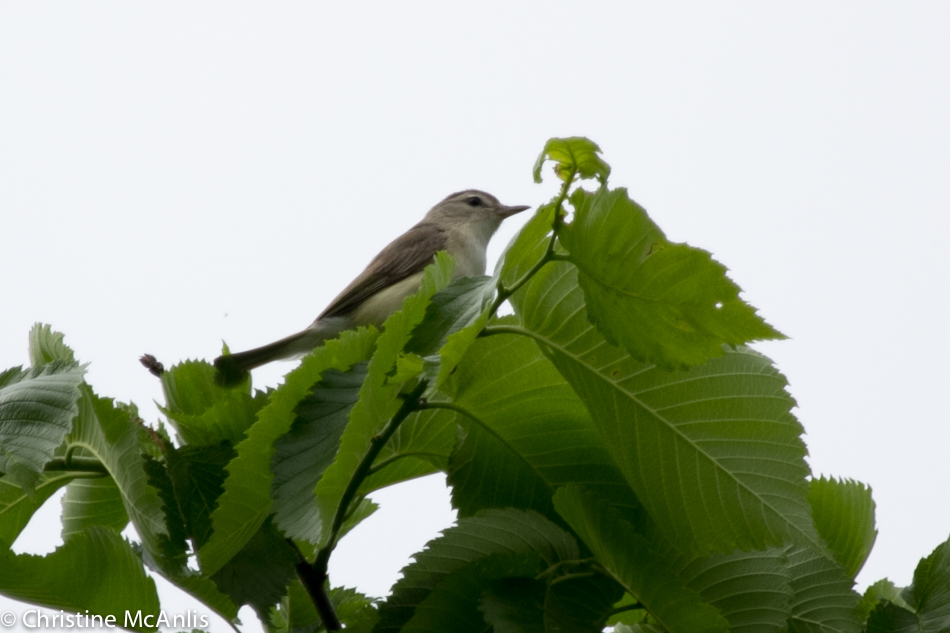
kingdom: Animalia
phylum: Chordata
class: Aves
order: Passeriformes
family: Vireonidae
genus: Vireo
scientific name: Vireo gilvus
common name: Warbling vireo
